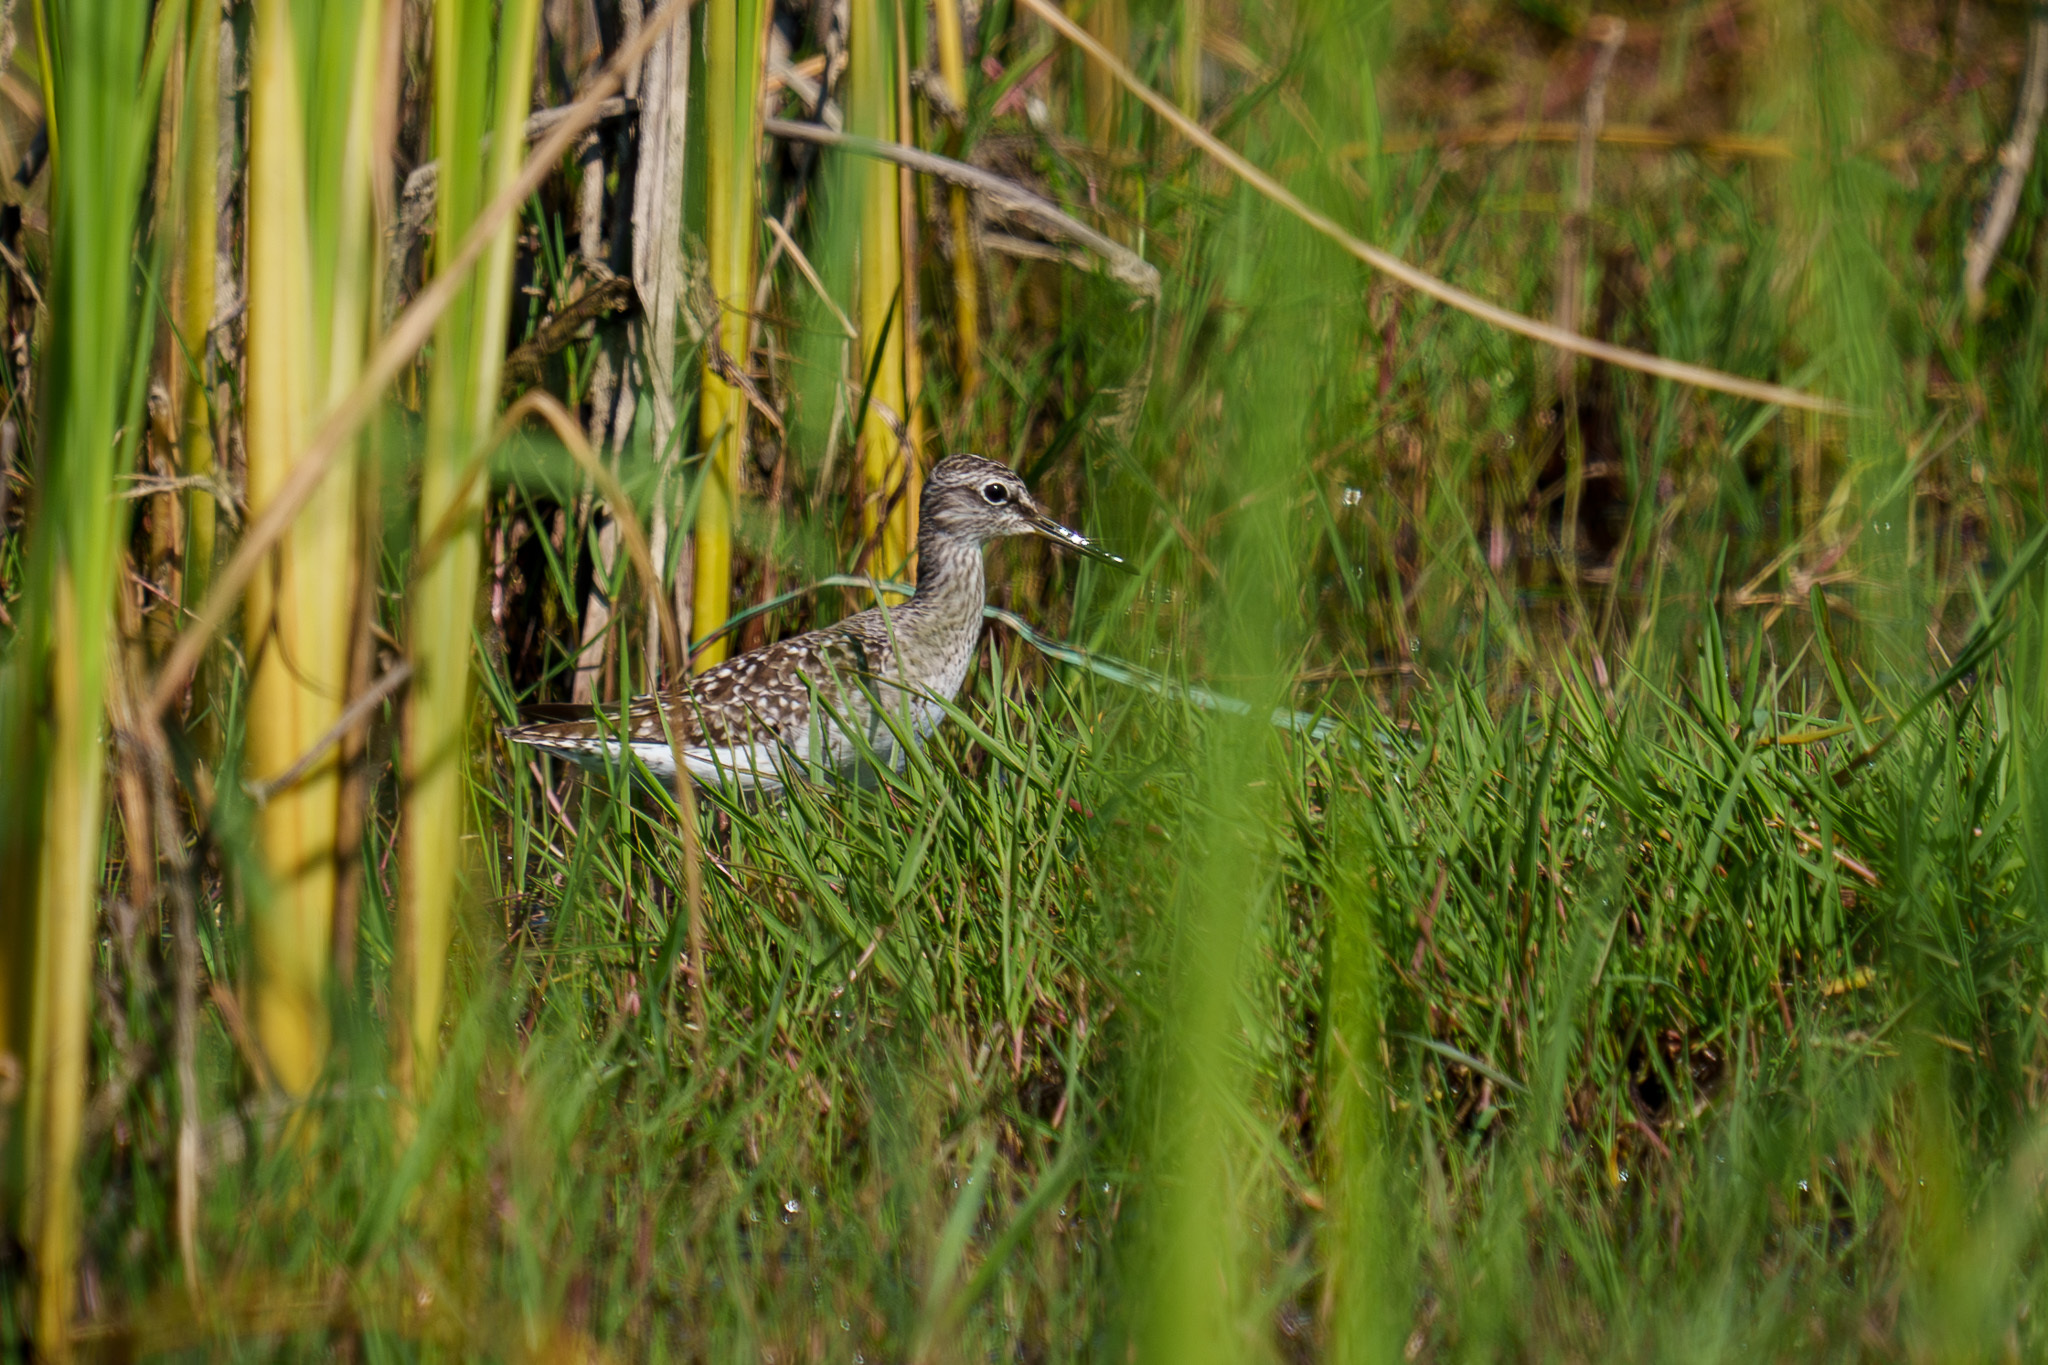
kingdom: Animalia
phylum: Chordata
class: Aves
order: Charadriiformes
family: Scolopacidae
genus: Tringa
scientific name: Tringa glareola
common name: Wood sandpiper
